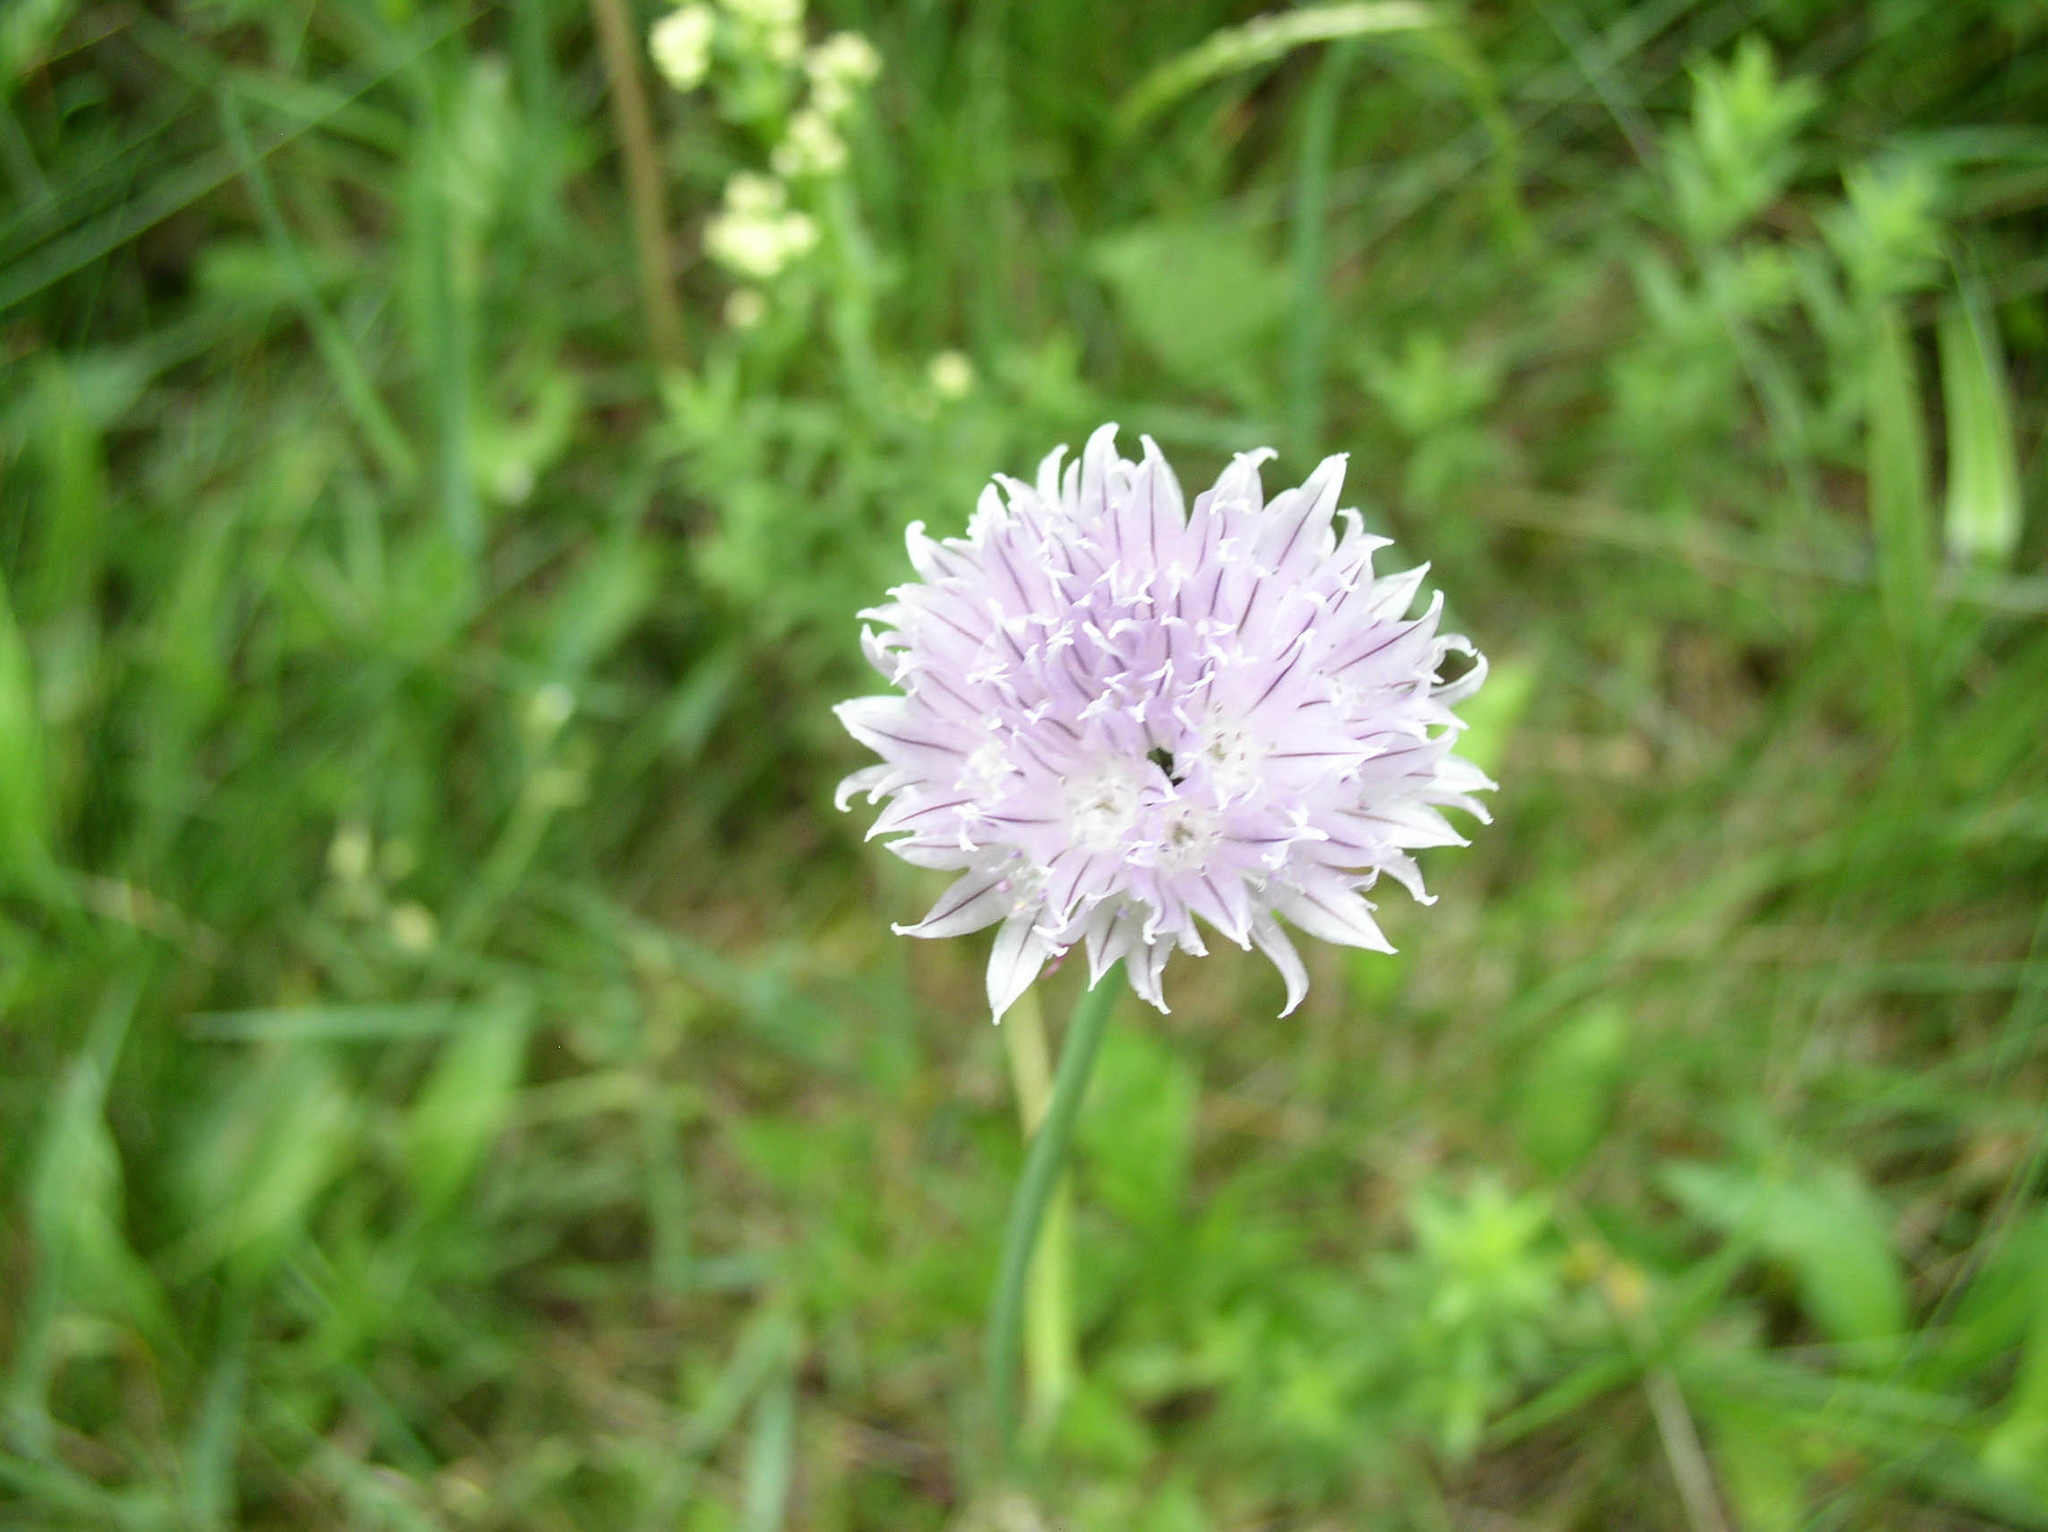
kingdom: Plantae
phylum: Tracheophyta
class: Liliopsida
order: Asparagales
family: Amaryllidaceae
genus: Allium
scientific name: Allium schoenoprasum
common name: Chives
